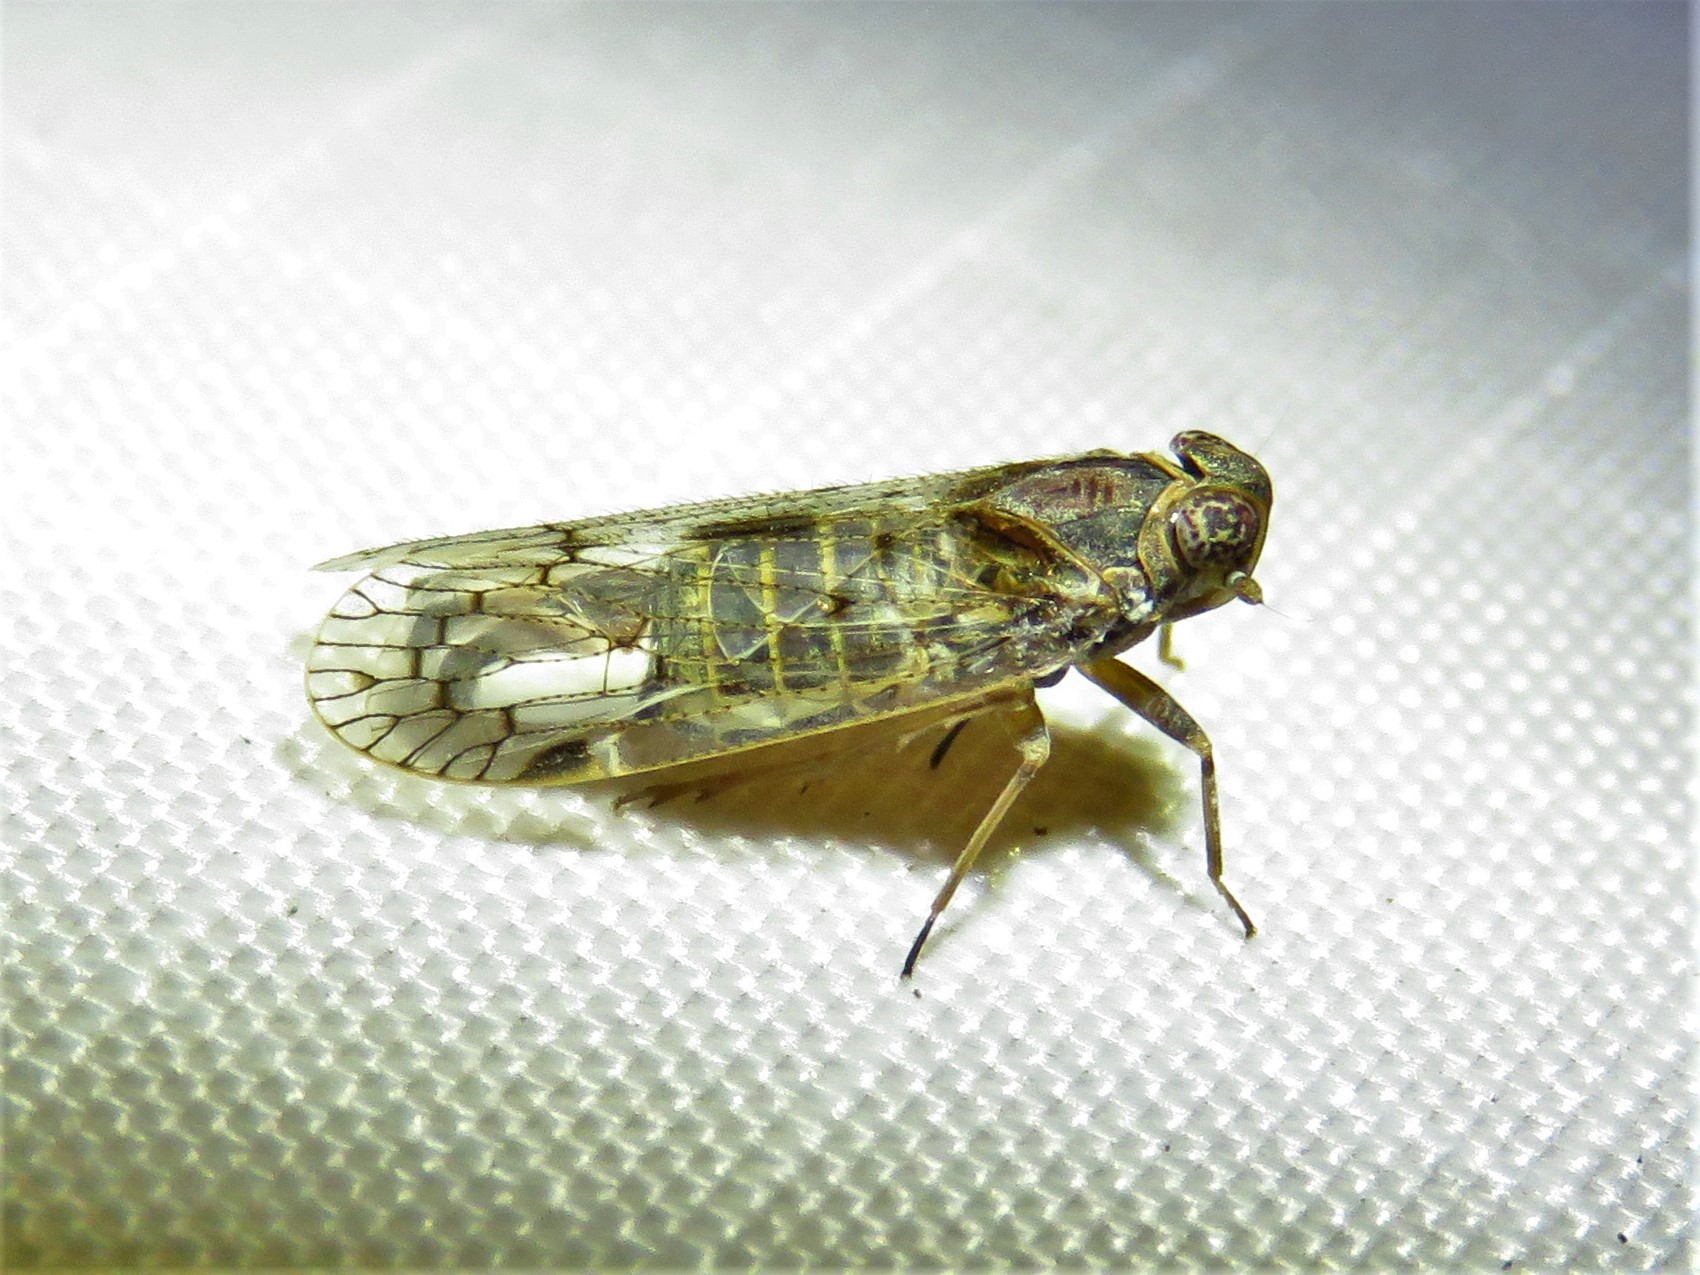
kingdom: Animalia
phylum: Arthropoda
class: Insecta
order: Hemiptera
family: Cixiidae
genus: Melanoliarus
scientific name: Melanoliarus aridus
